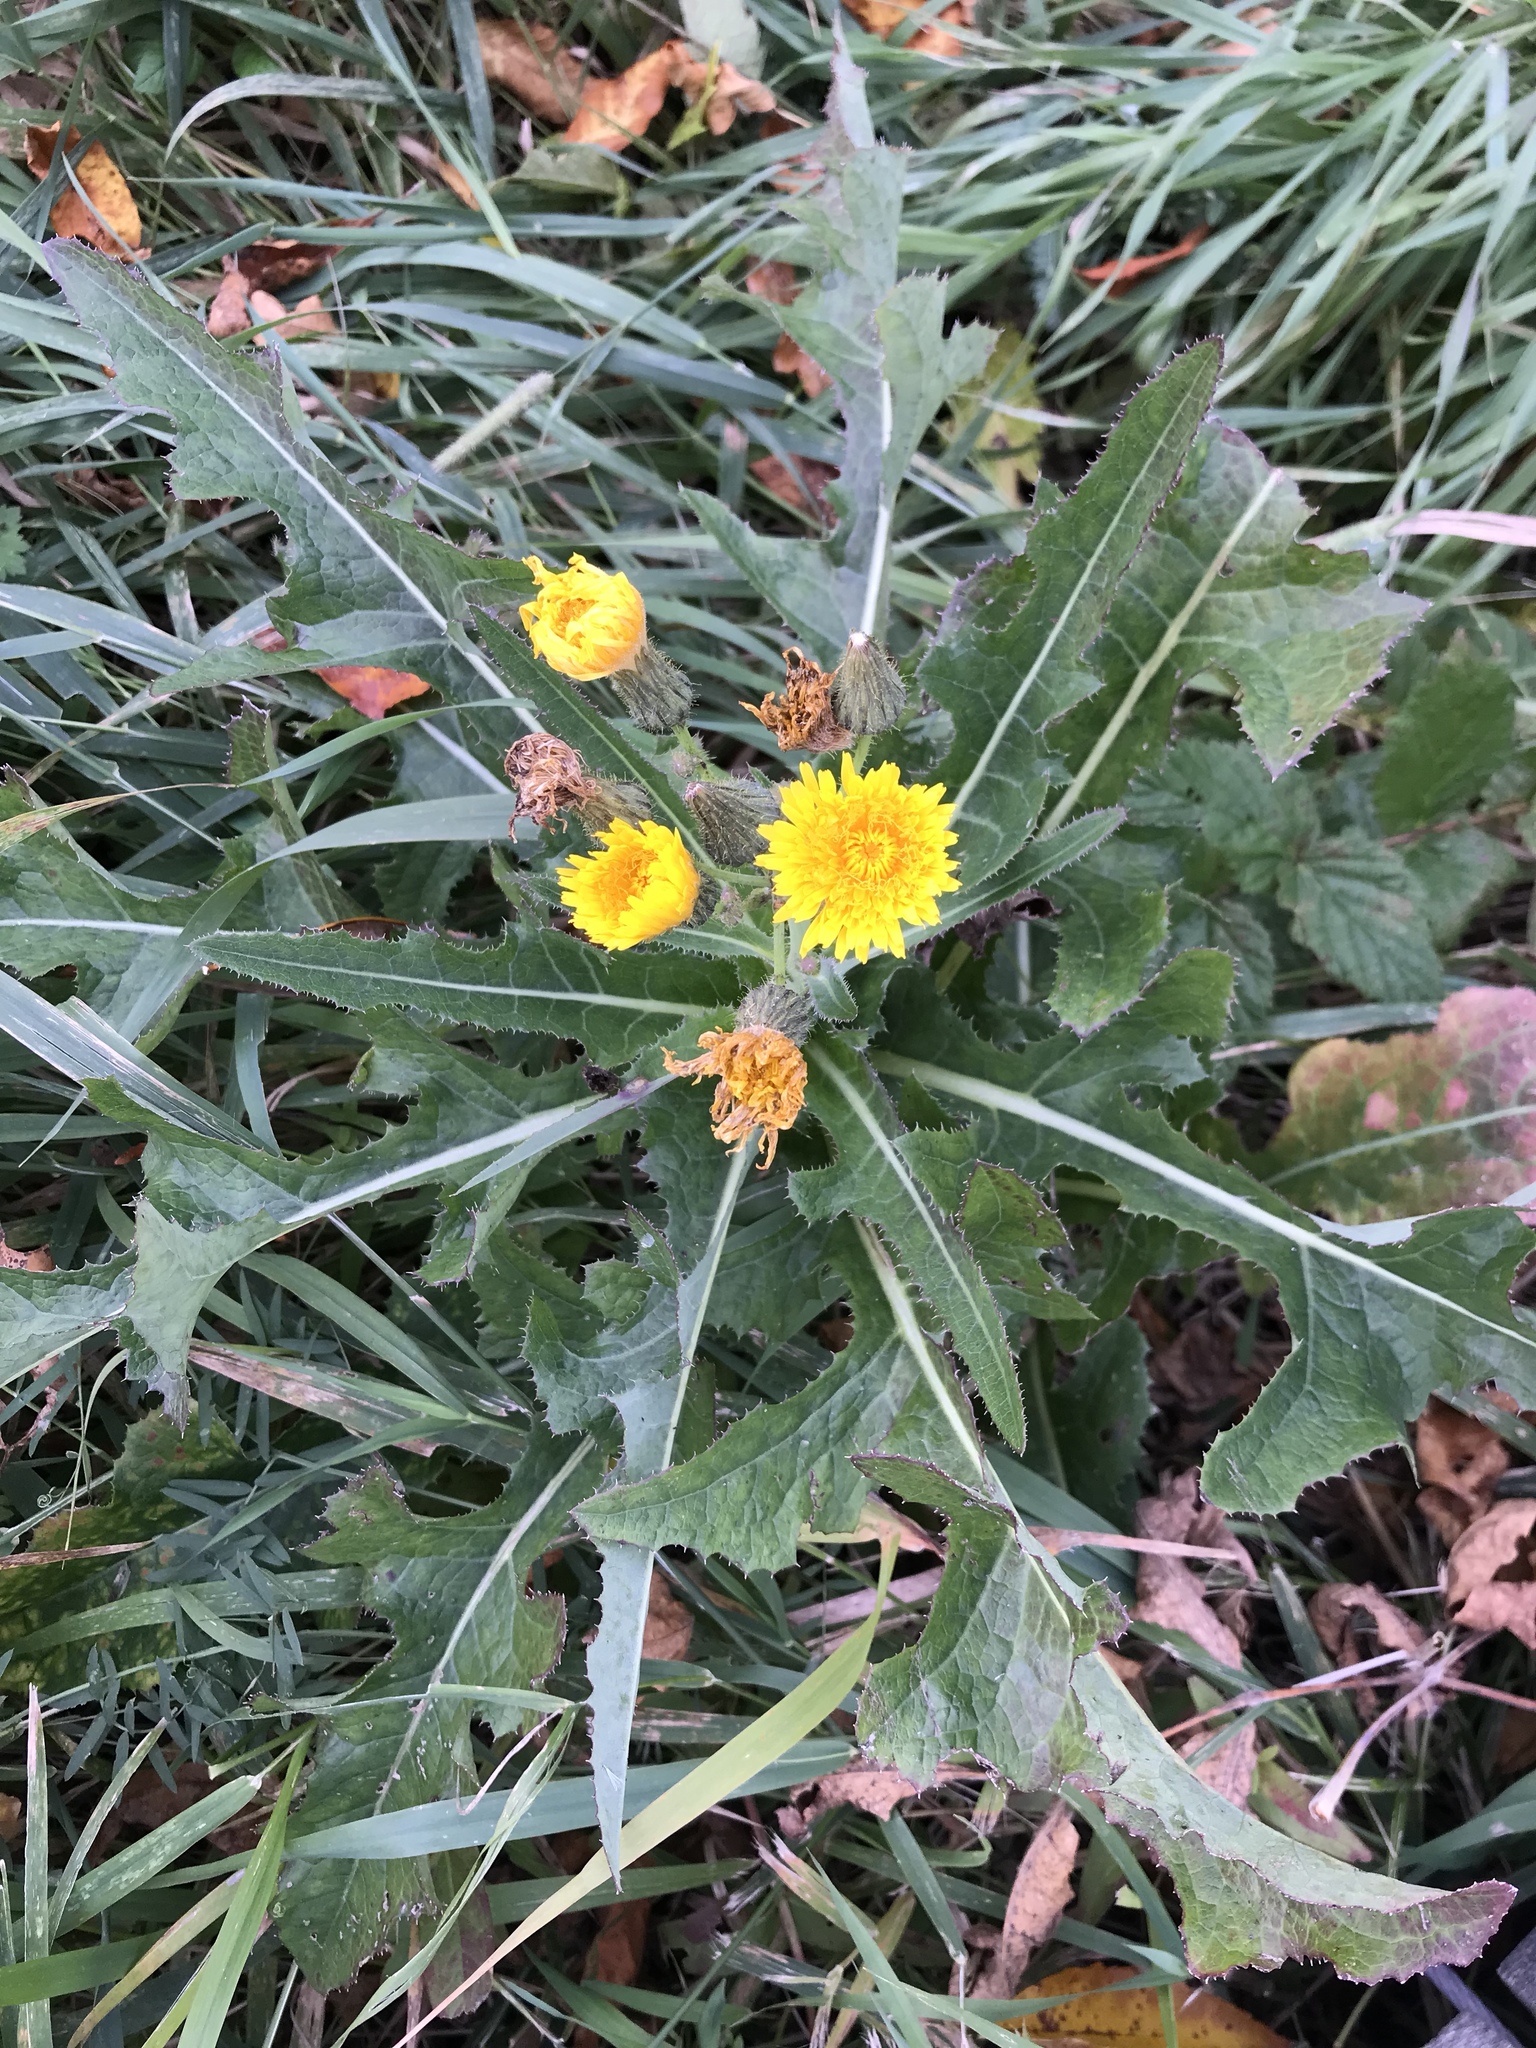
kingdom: Plantae
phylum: Tracheophyta
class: Magnoliopsida
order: Asterales
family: Asteraceae
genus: Sonchus
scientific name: Sonchus arvensis
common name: Perennial sow-thistle
